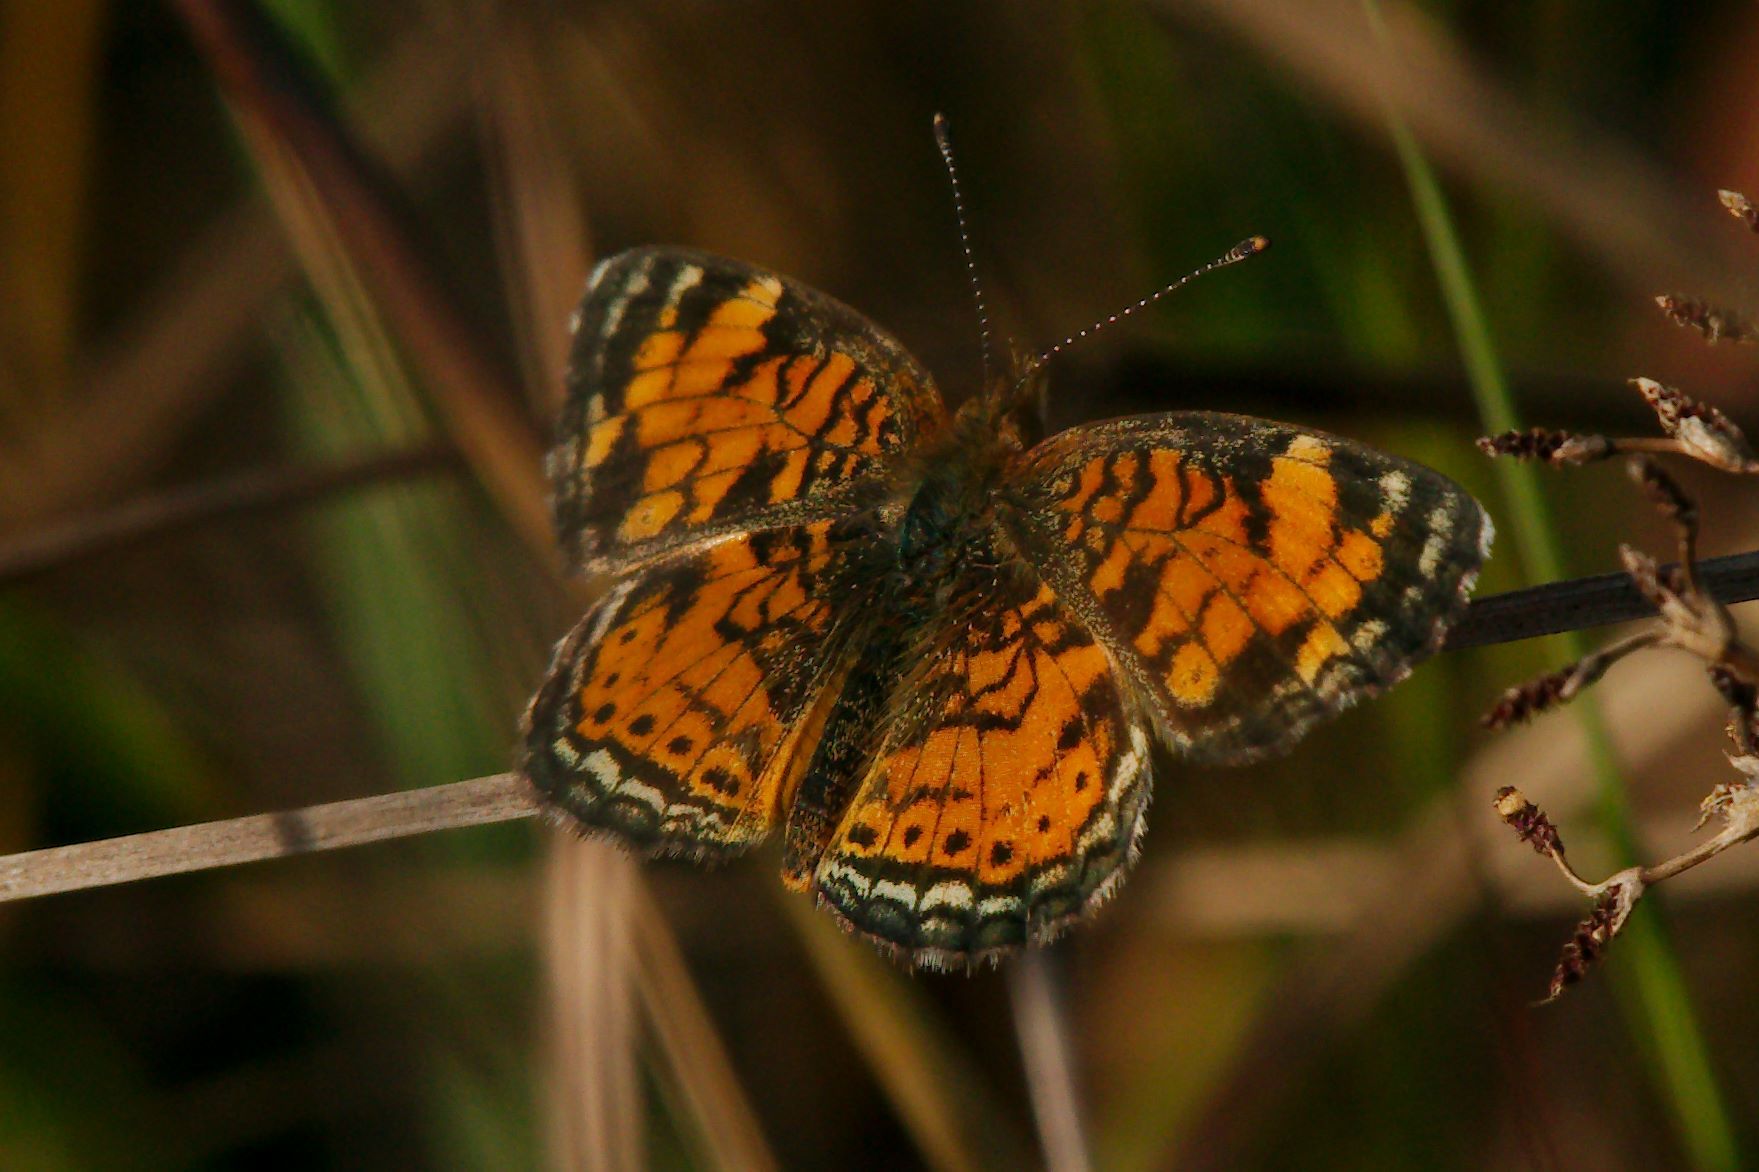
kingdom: Animalia
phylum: Arthropoda
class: Insecta
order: Lepidoptera
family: Nymphalidae
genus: Phyciodes
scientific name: Phyciodes tharos
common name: Pearl crescent
